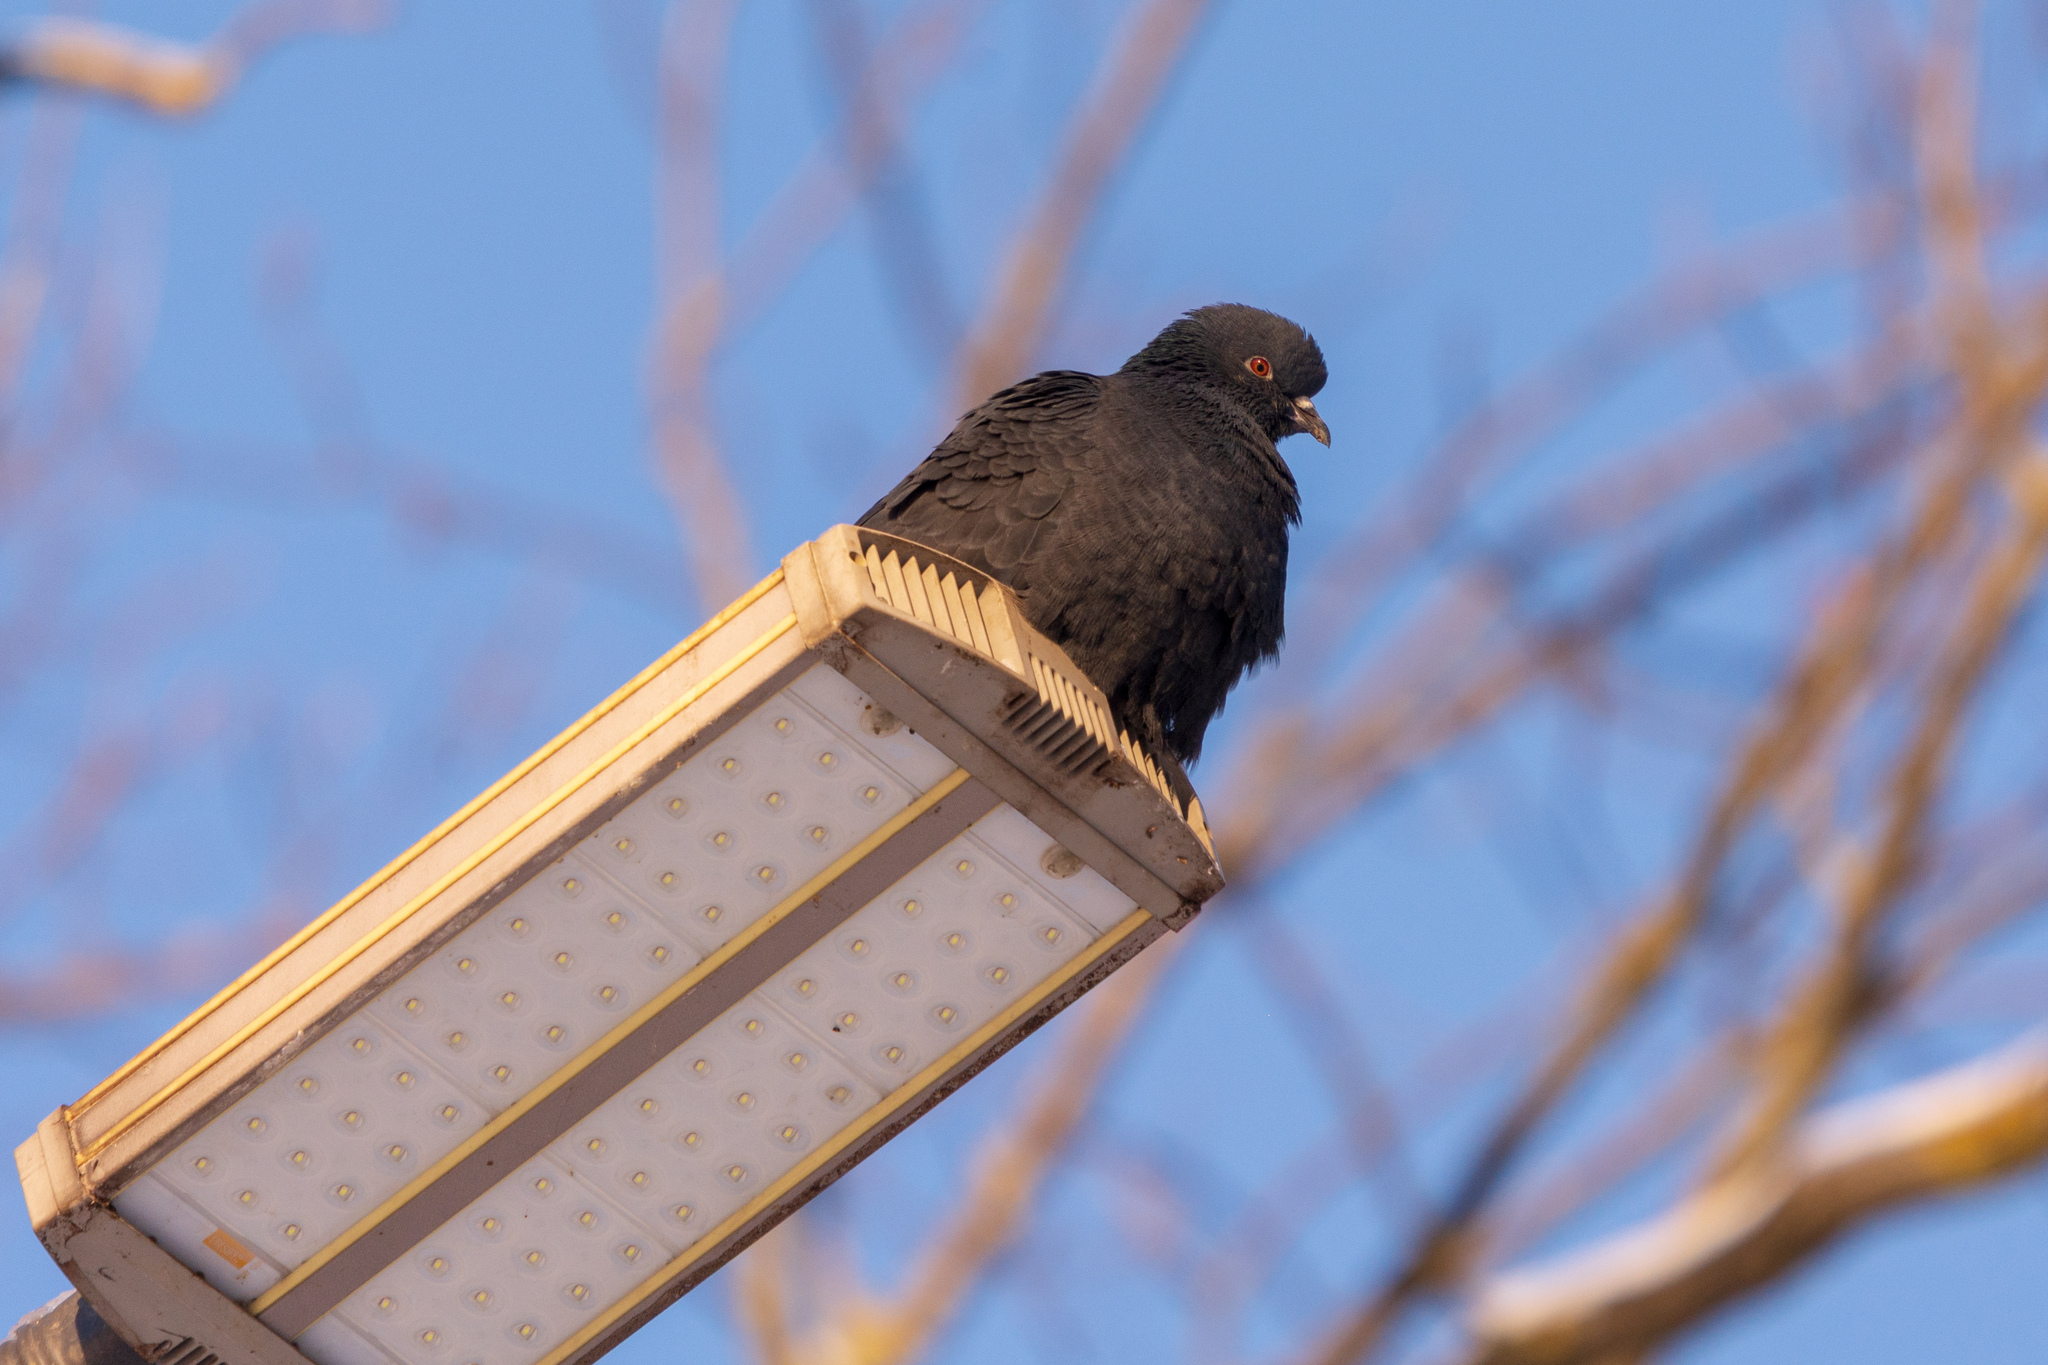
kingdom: Animalia
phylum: Chordata
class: Aves
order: Columbiformes
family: Columbidae
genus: Columba
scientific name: Columba livia
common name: Rock pigeon
